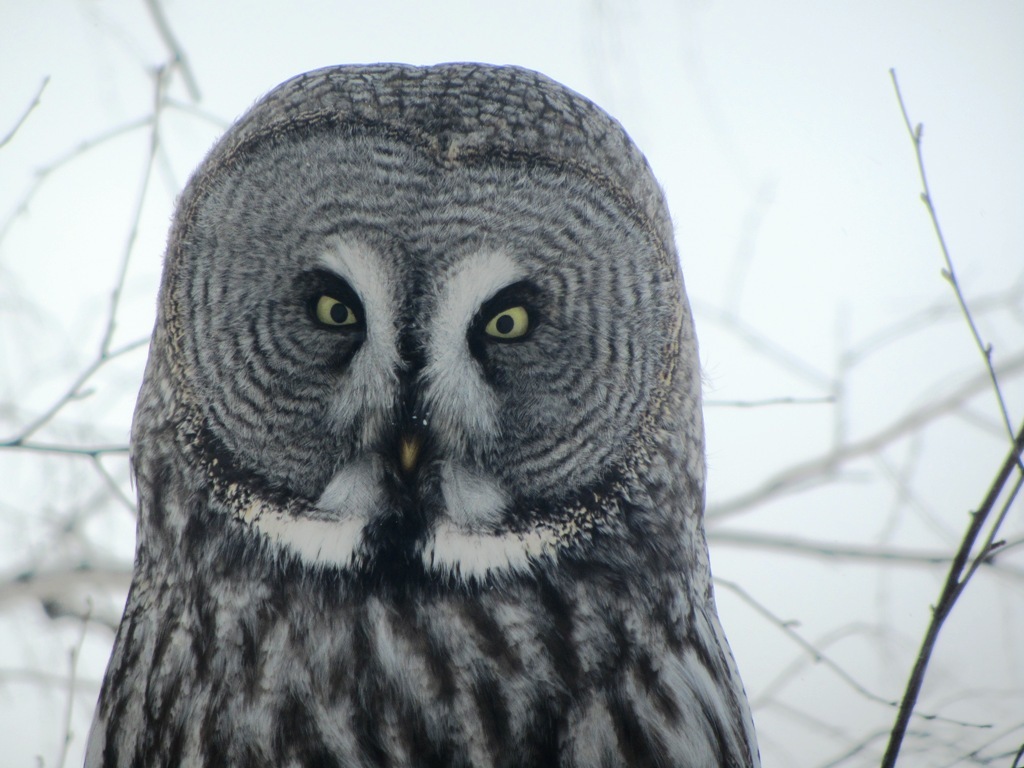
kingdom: Animalia
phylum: Chordata
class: Aves
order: Strigiformes
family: Strigidae
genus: Strix
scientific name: Strix nebulosa
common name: Great grey owl
